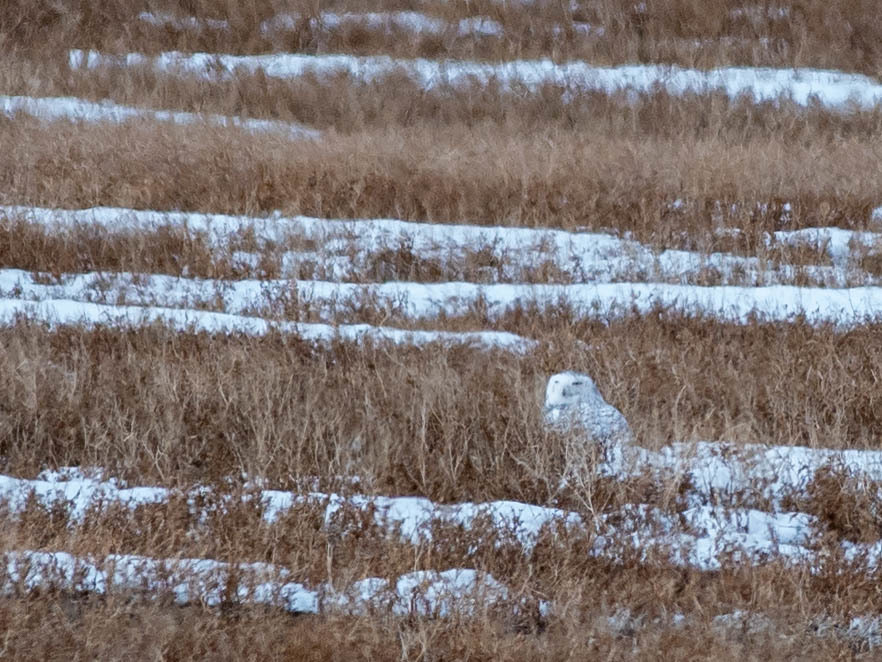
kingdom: Animalia
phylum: Chordata
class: Aves
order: Strigiformes
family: Strigidae
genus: Bubo
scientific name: Bubo scandiacus
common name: Snowy owl
